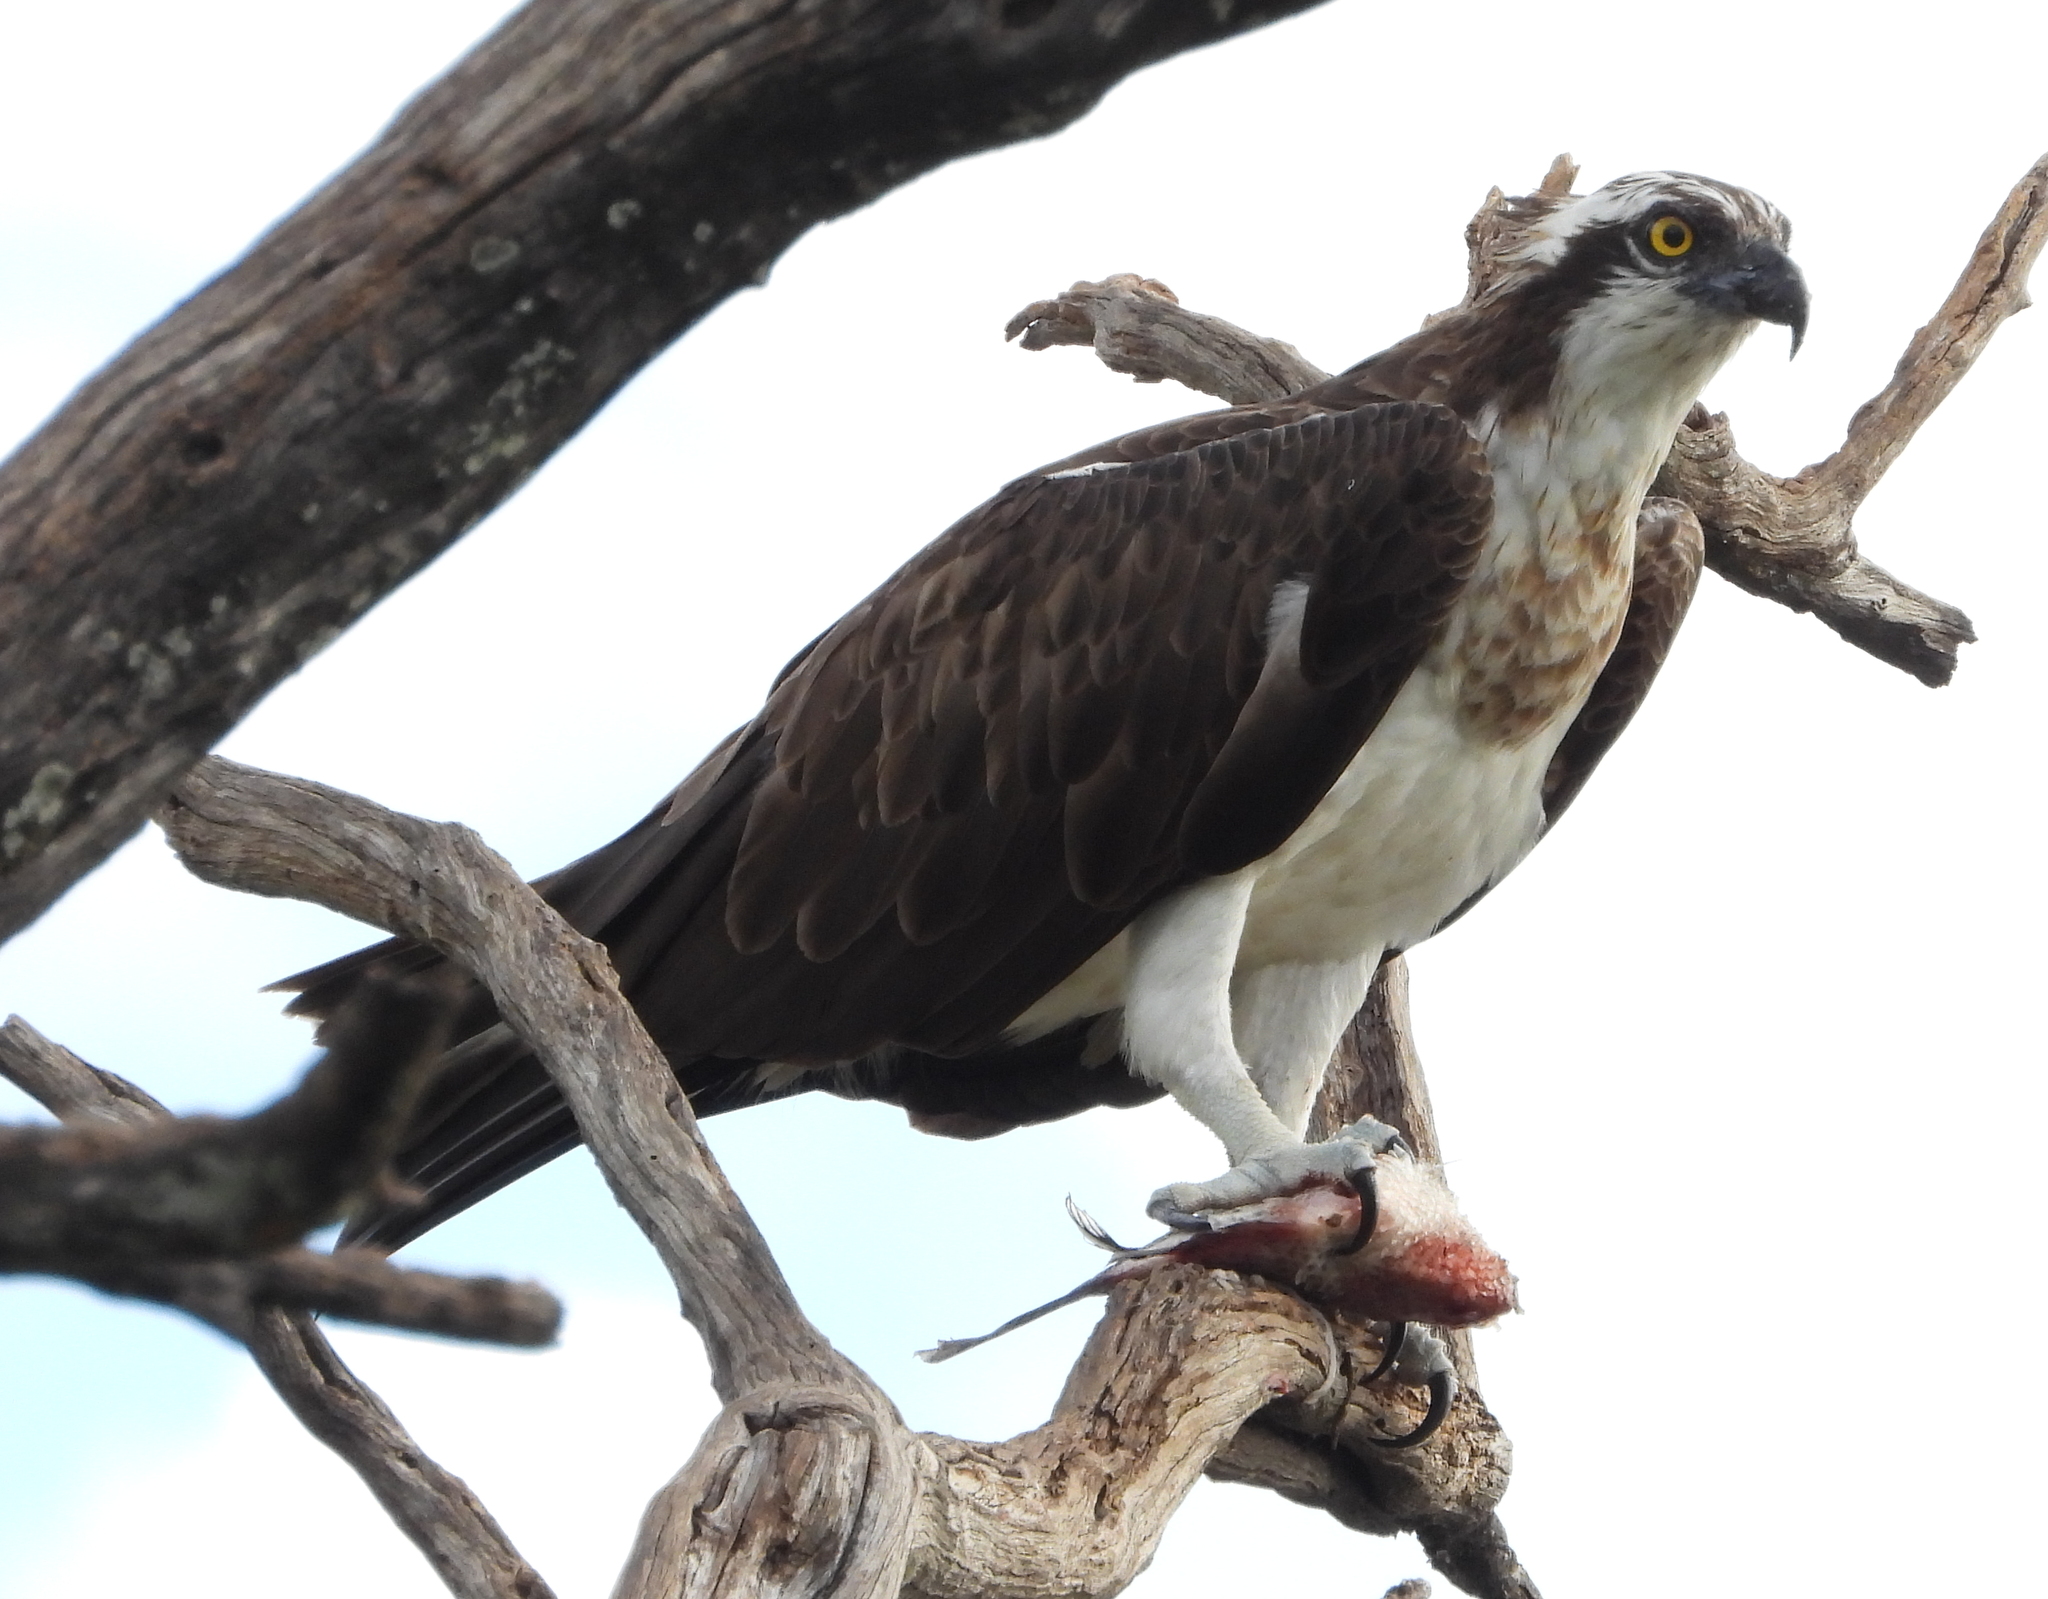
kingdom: Animalia
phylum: Chordata
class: Aves
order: Accipitriformes
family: Pandionidae
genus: Pandion
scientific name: Pandion haliaetus
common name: Osprey
